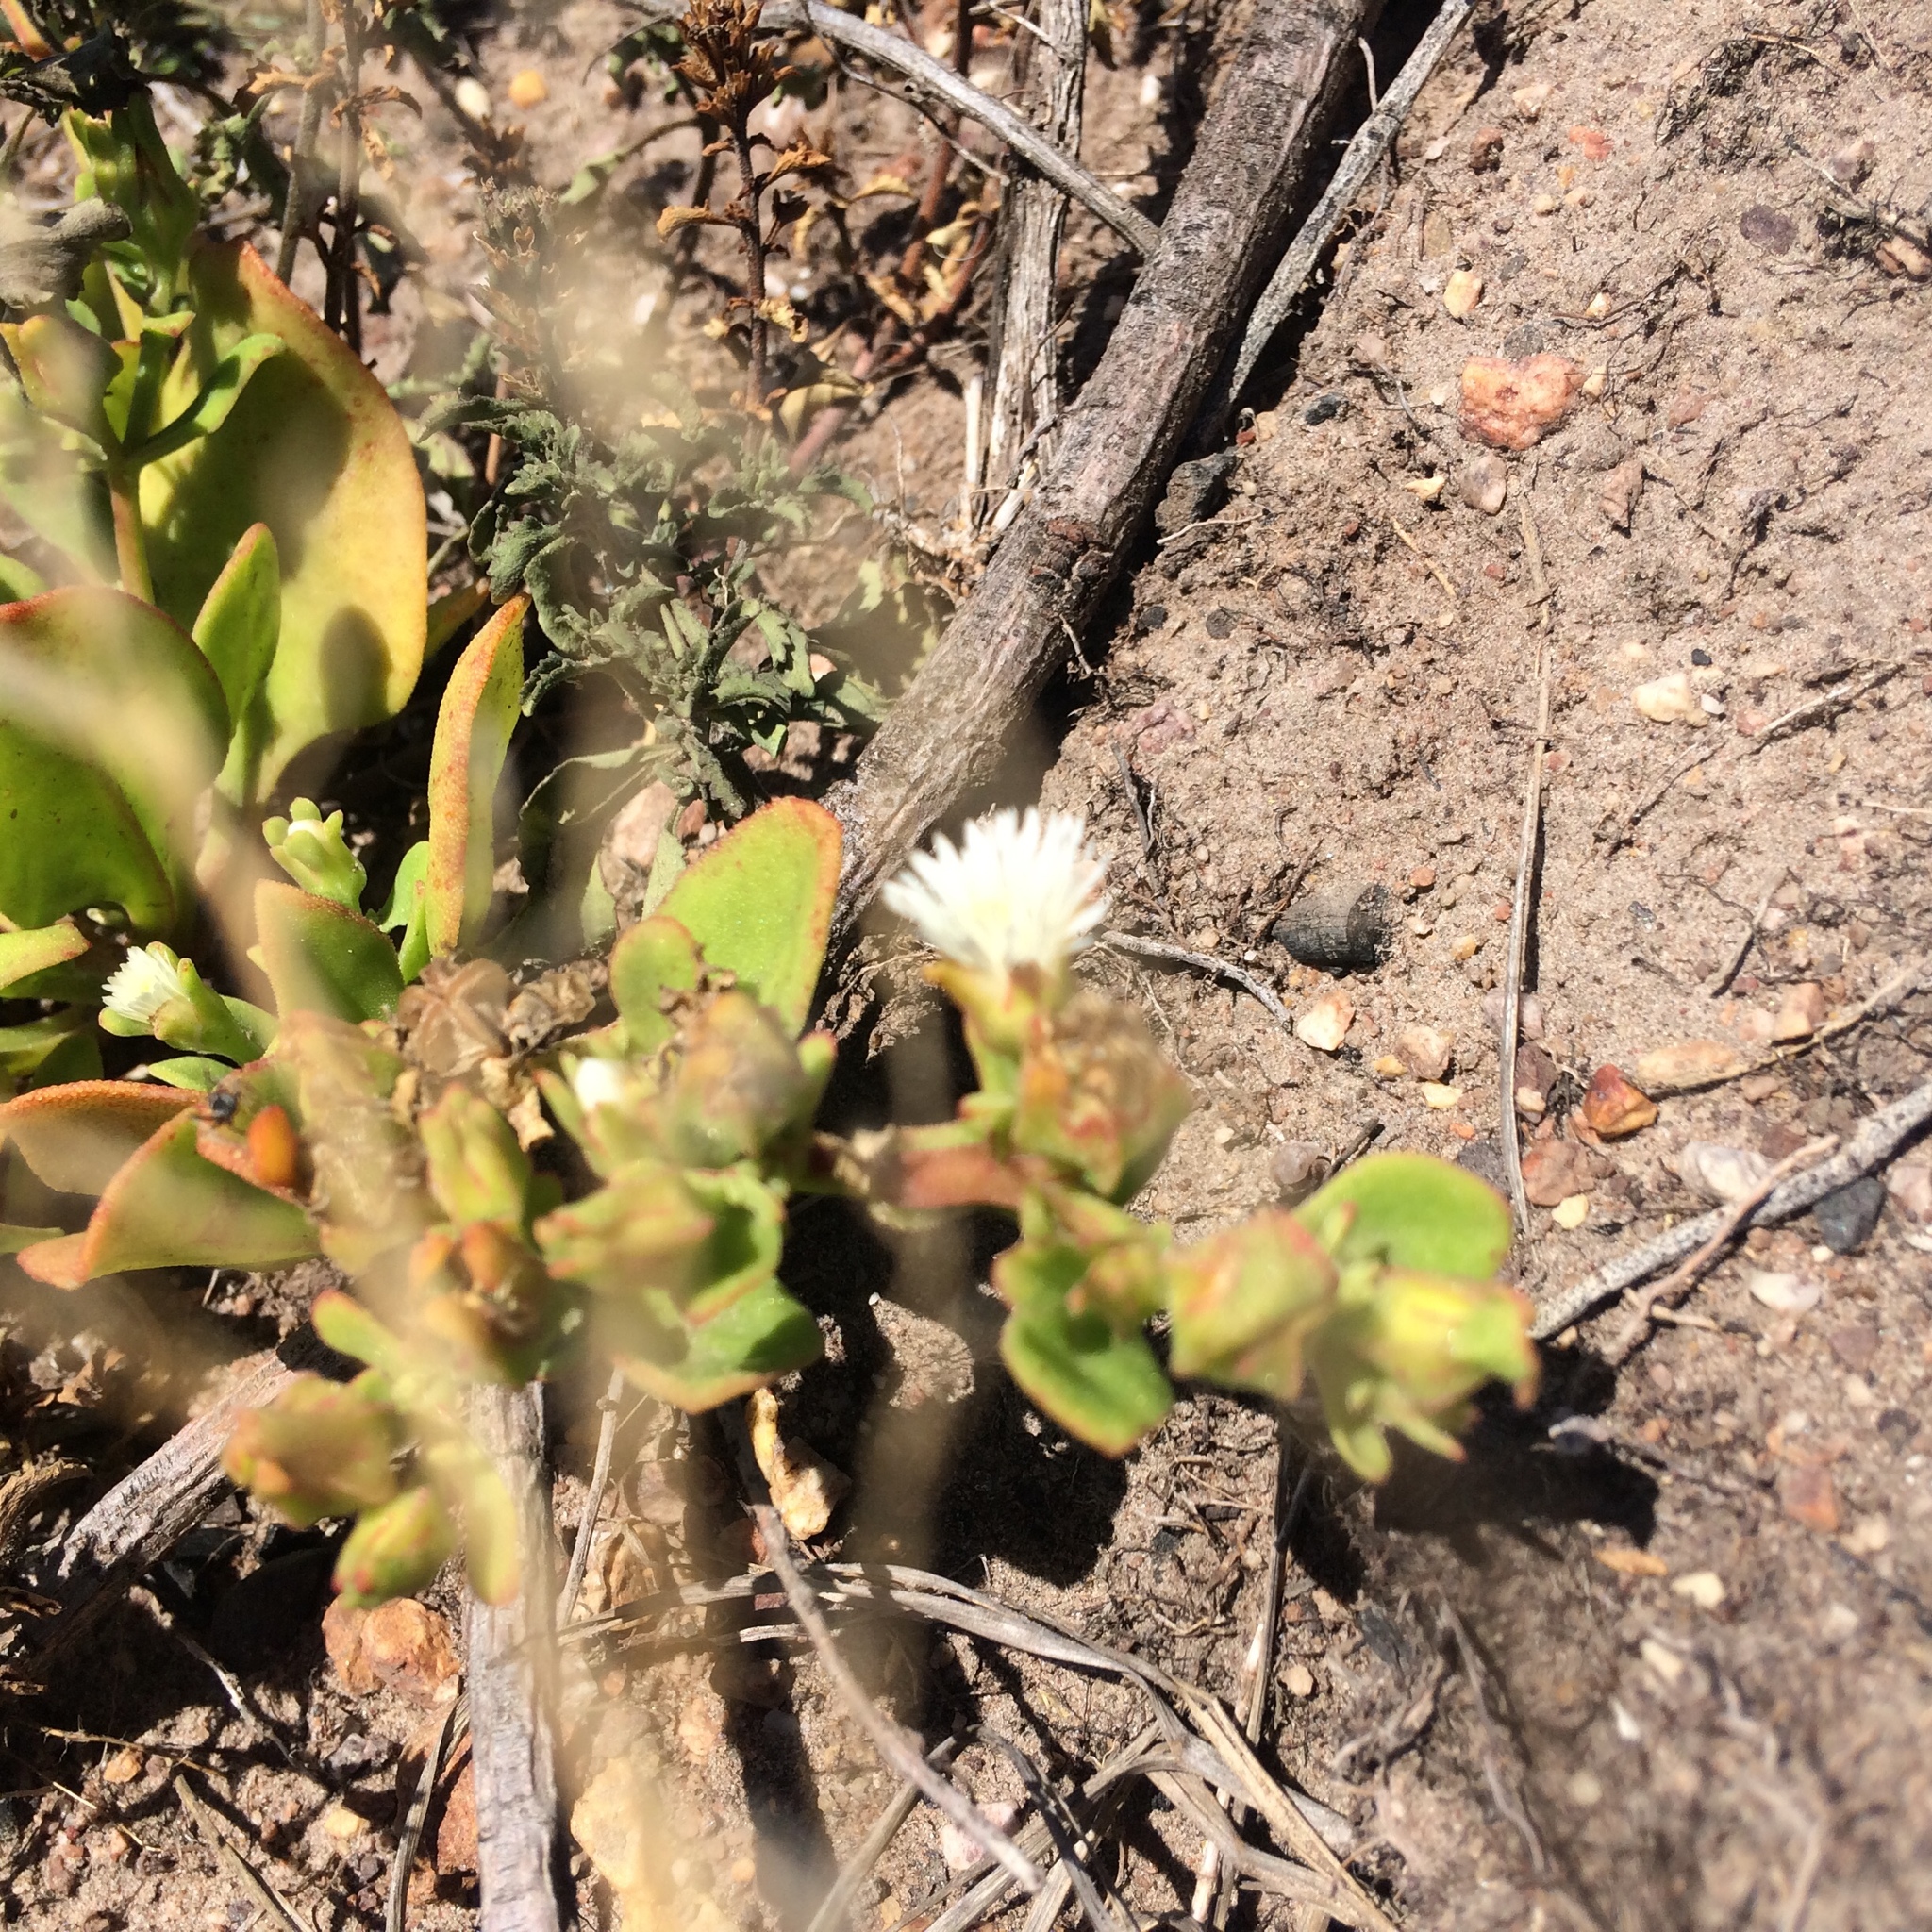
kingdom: Plantae
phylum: Tracheophyta
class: Magnoliopsida
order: Caryophyllales
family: Aizoaceae
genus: Mesembryanthemum
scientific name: Mesembryanthemum aitonis
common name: Angled iceplant
